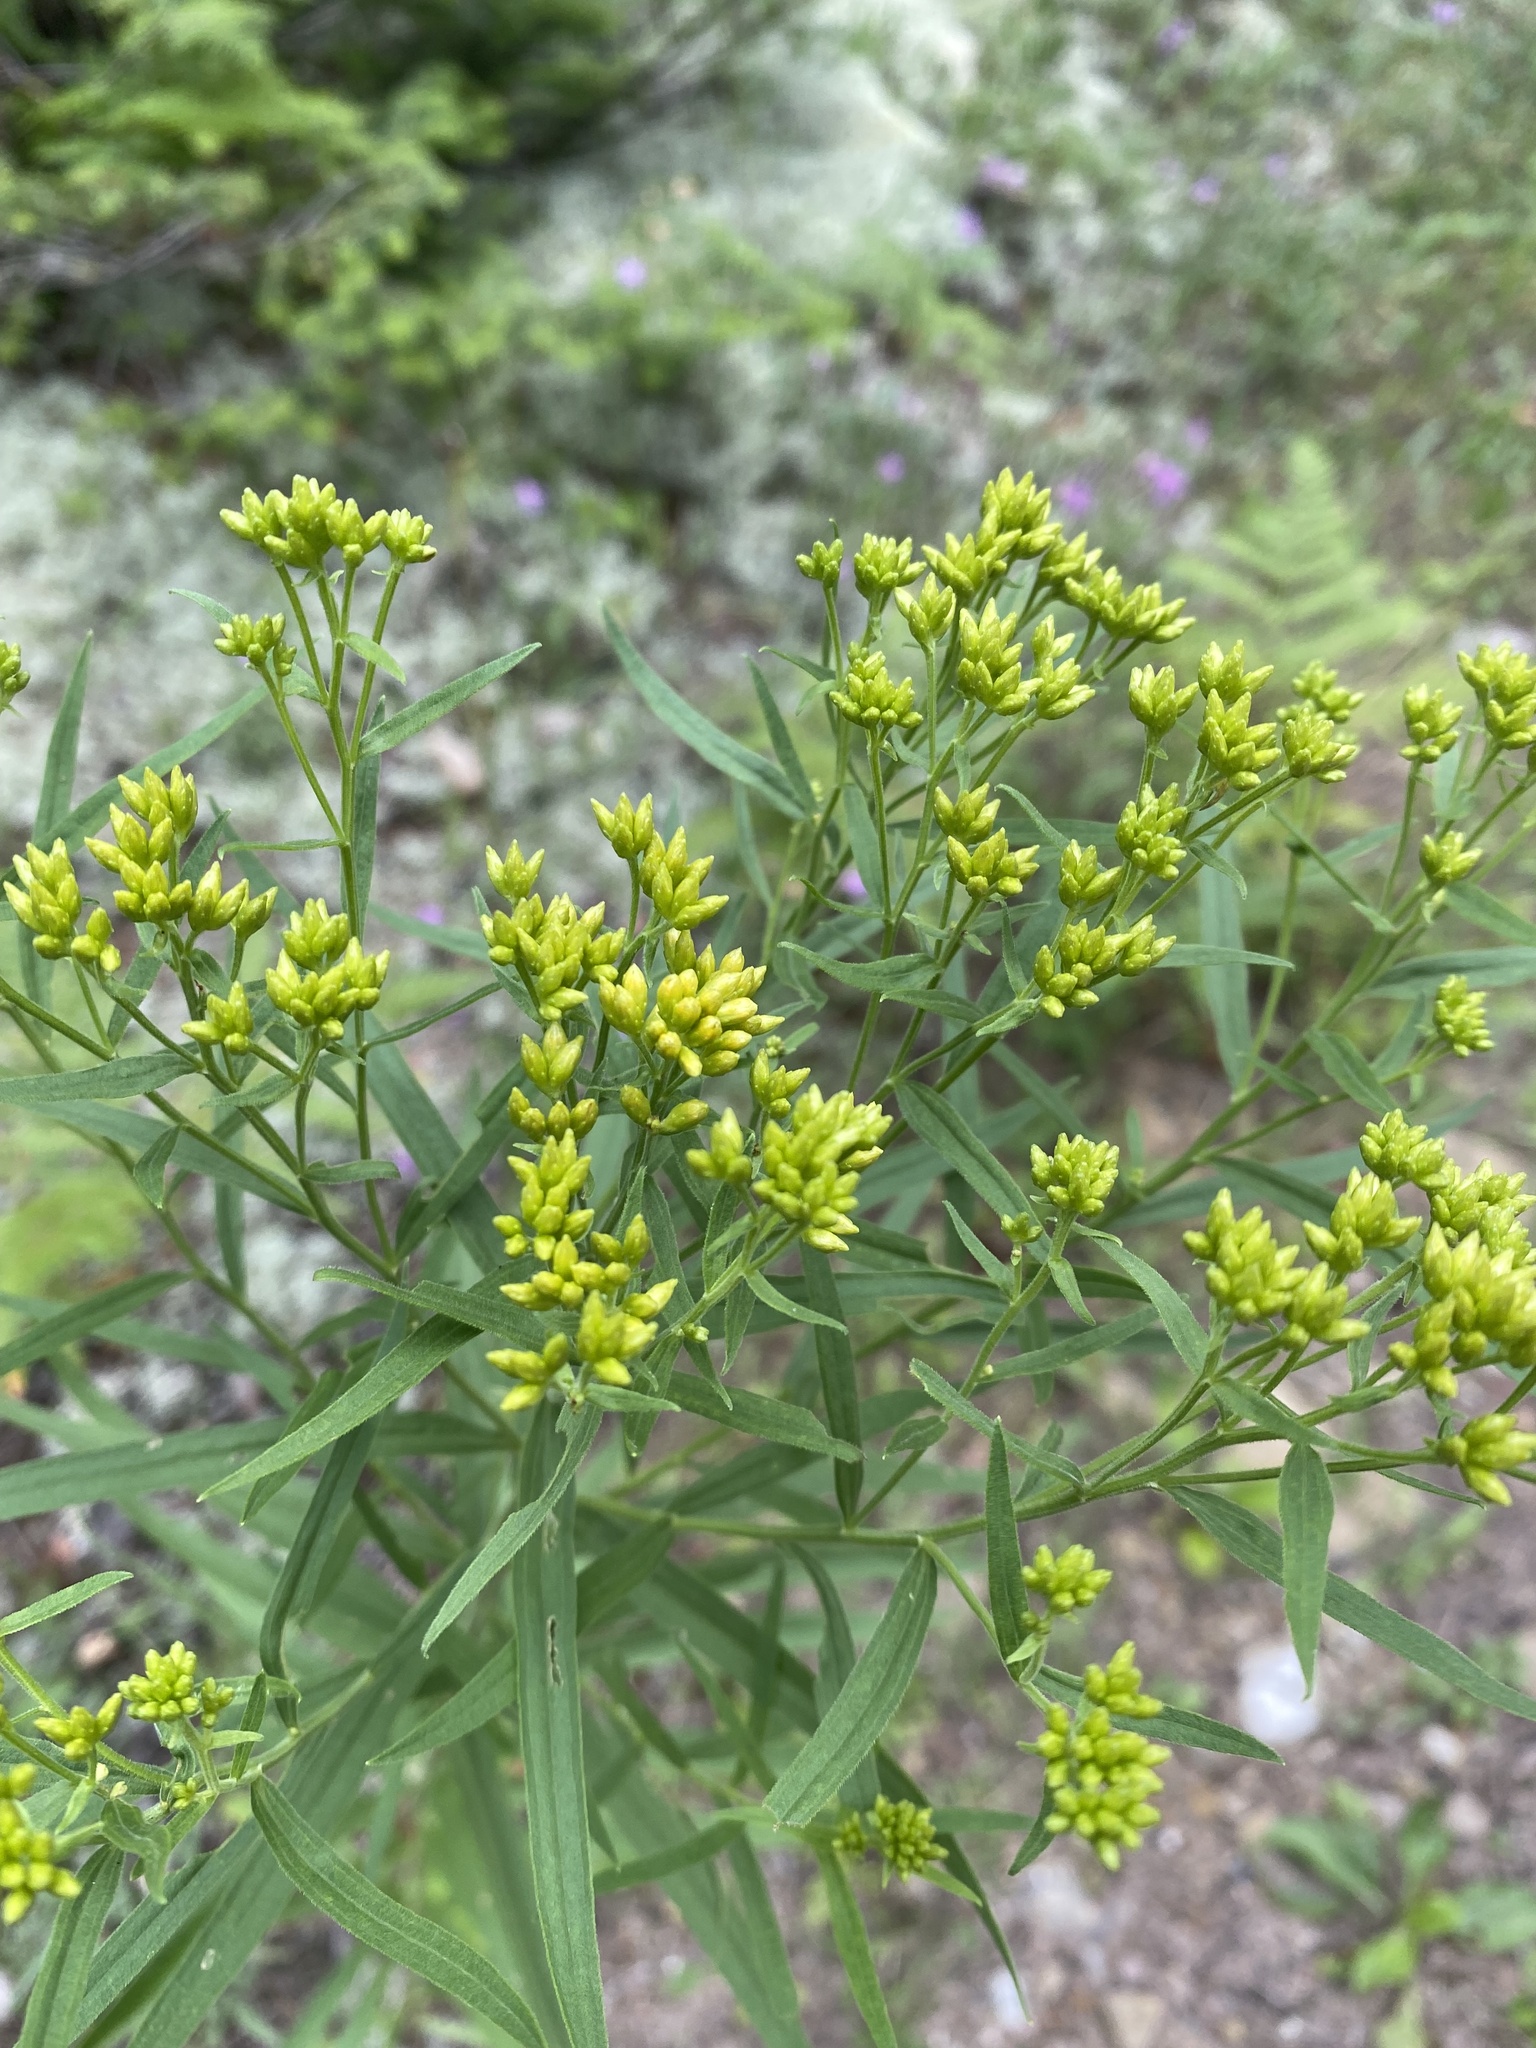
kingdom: Plantae
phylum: Tracheophyta
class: Magnoliopsida
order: Asterales
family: Asteraceae
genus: Euthamia
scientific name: Euthamia graminifolia
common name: Common goldentop
